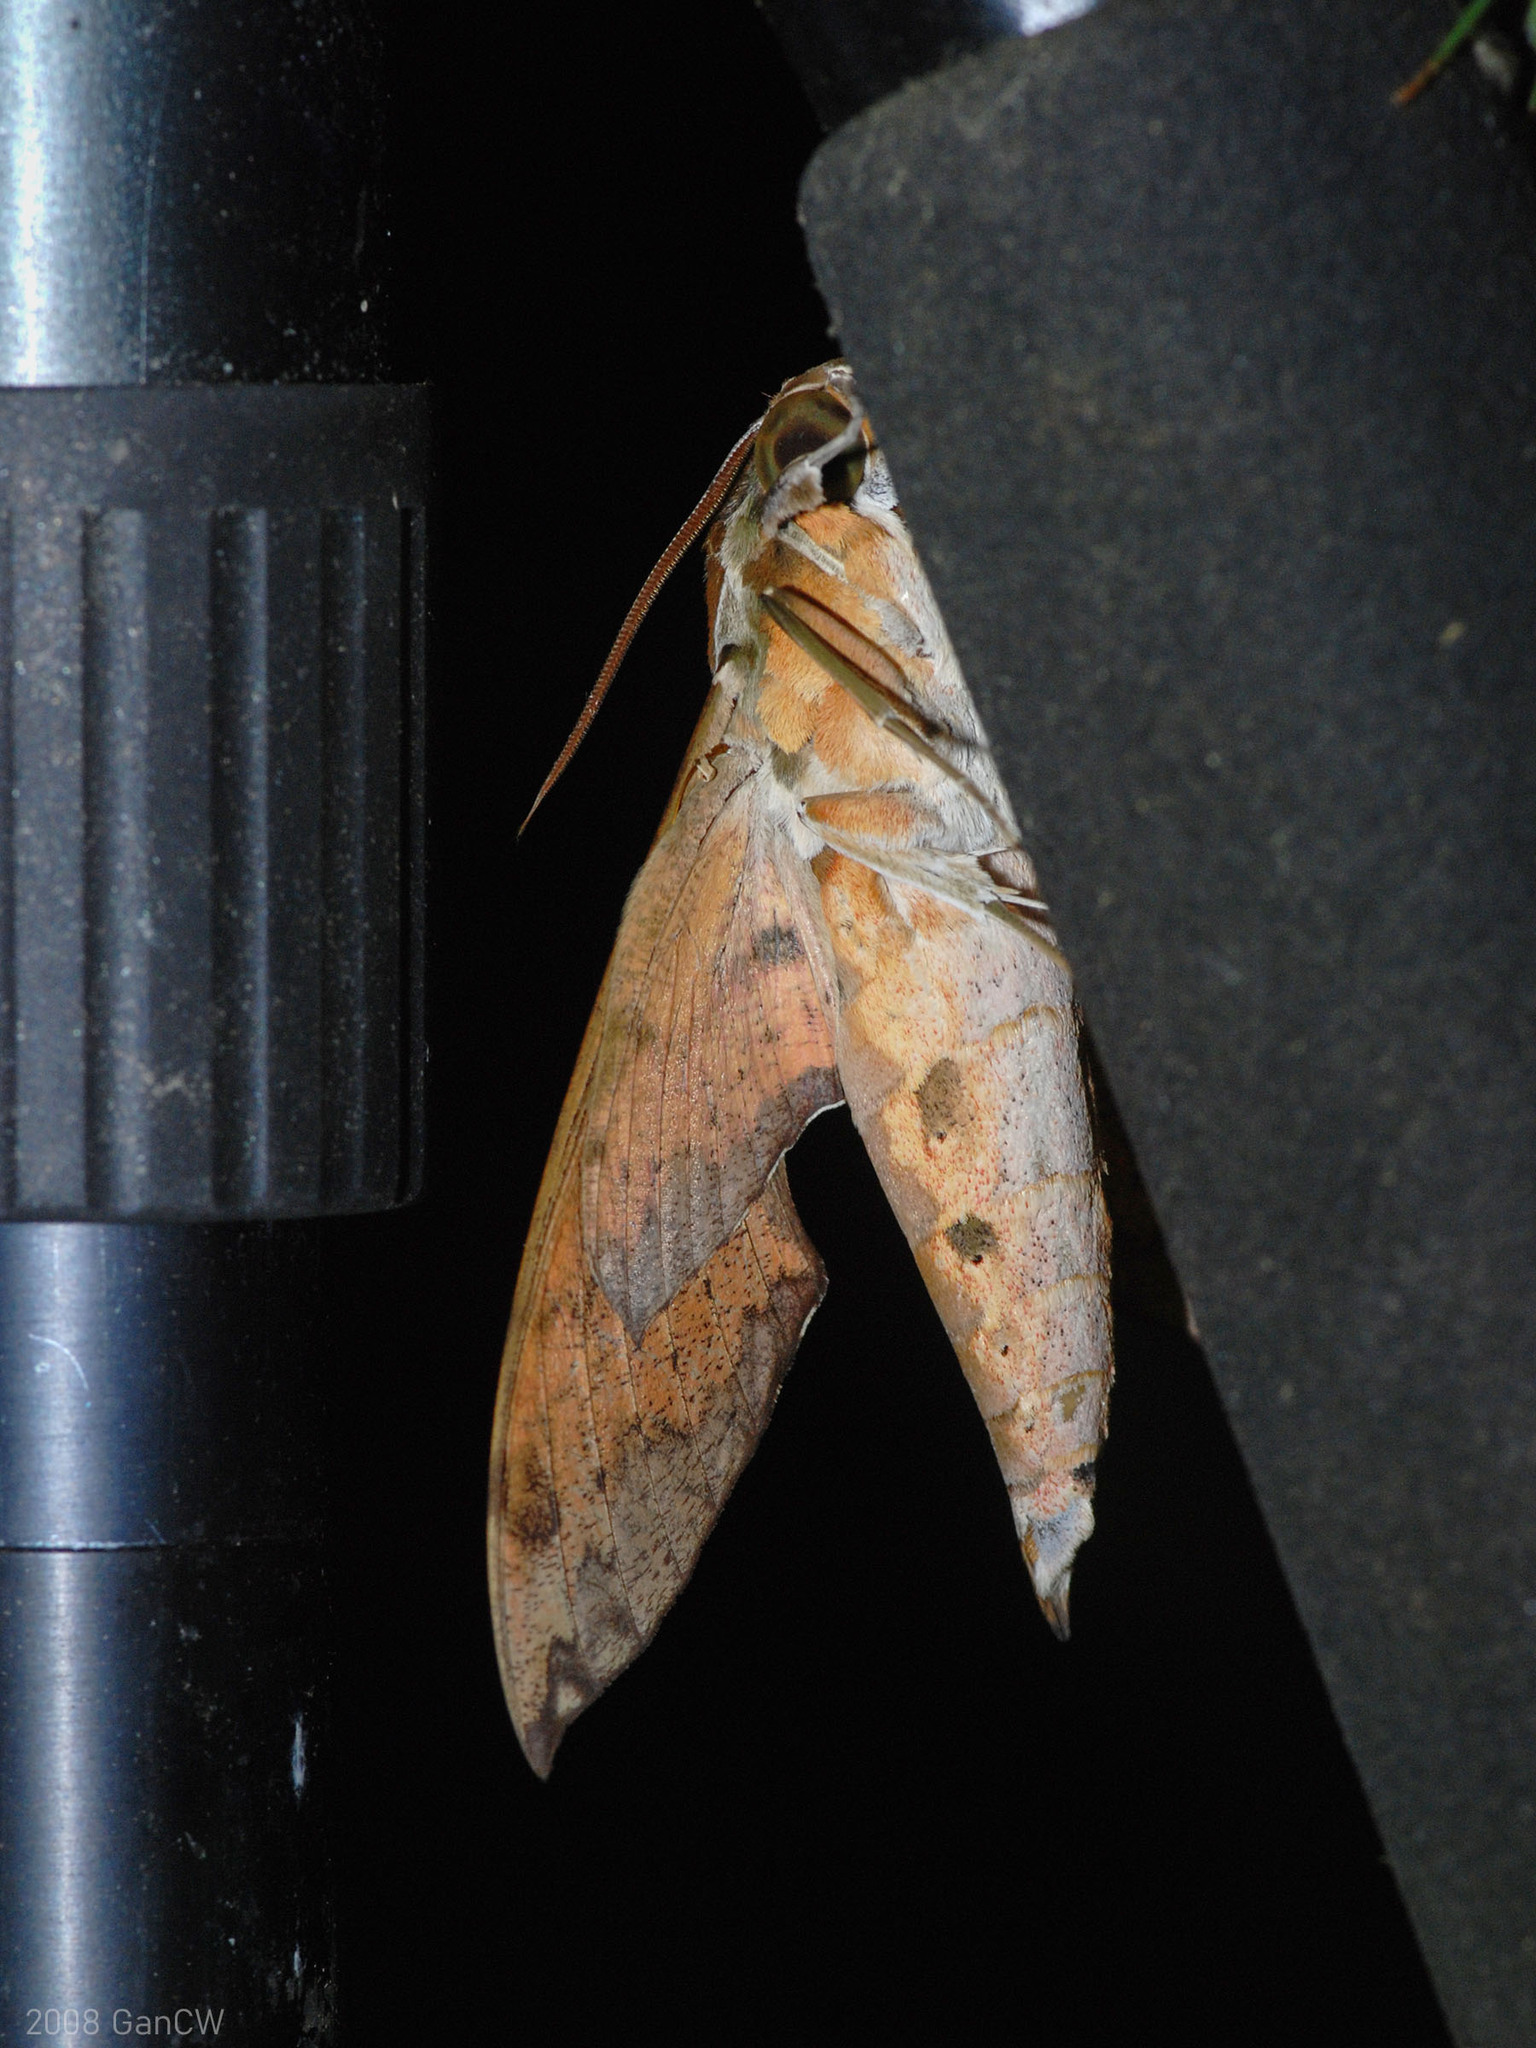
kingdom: Animalia
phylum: Arthropoda
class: Insecta
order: Lepidoptera
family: Sphingidae
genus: Cechenena
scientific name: Cechenena helops
